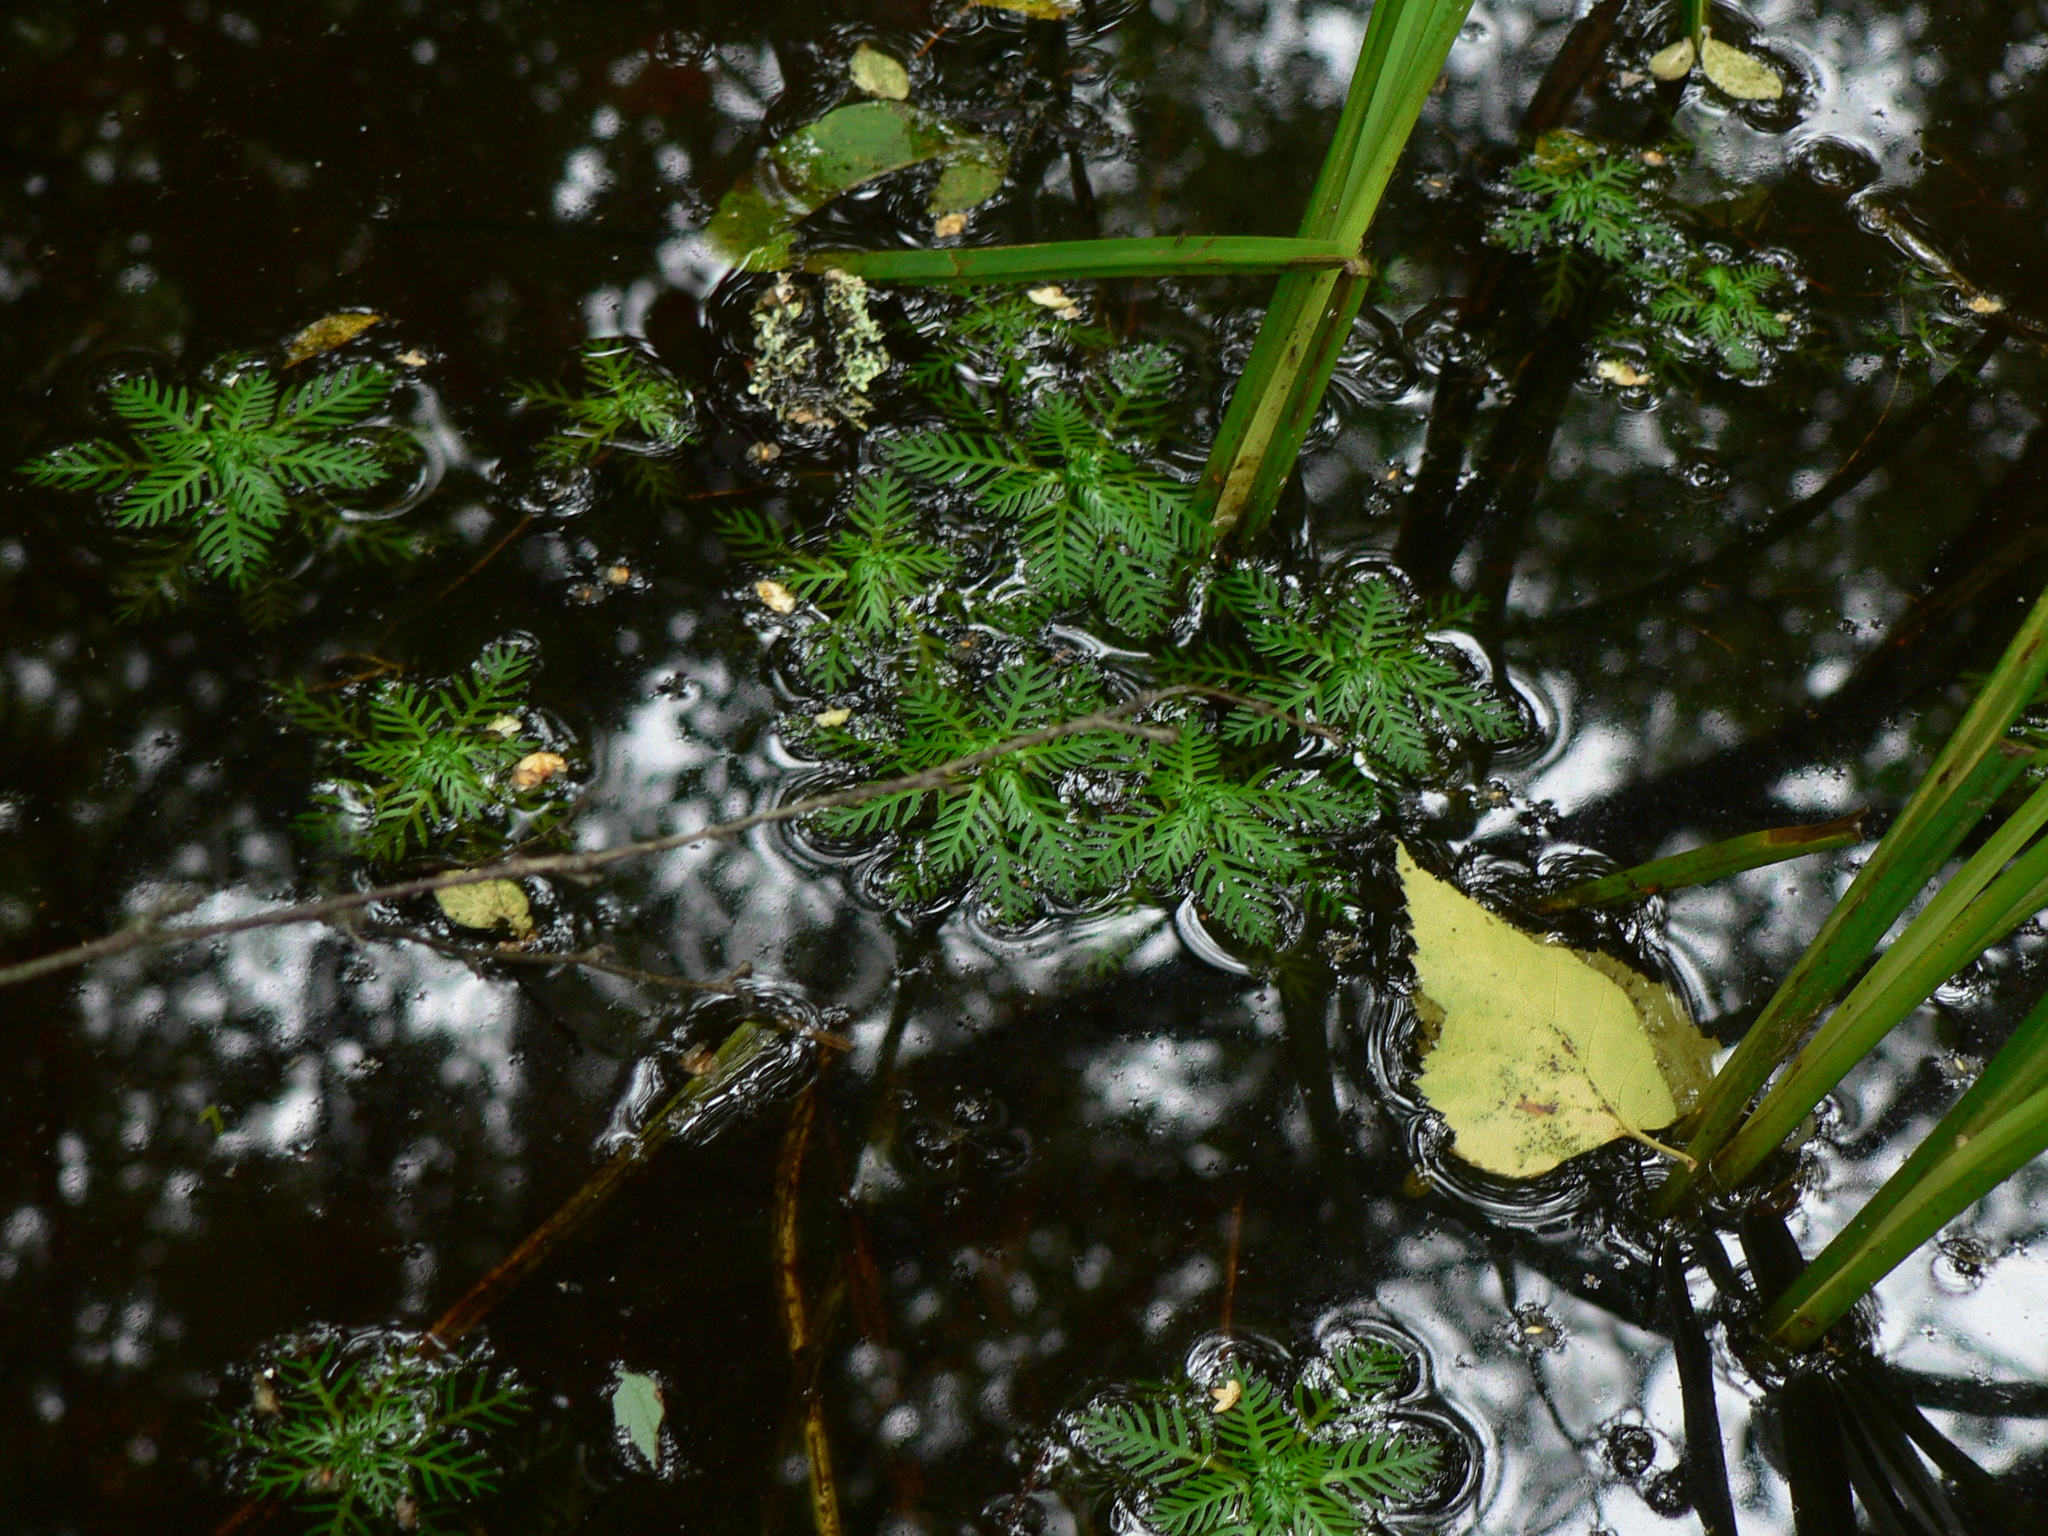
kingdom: Plantae
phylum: Tracheophyta
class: Magnoliopsida
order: Ericales
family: Primulaceae
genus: Hottonia
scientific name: Hottonia palustris
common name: Water-violet
